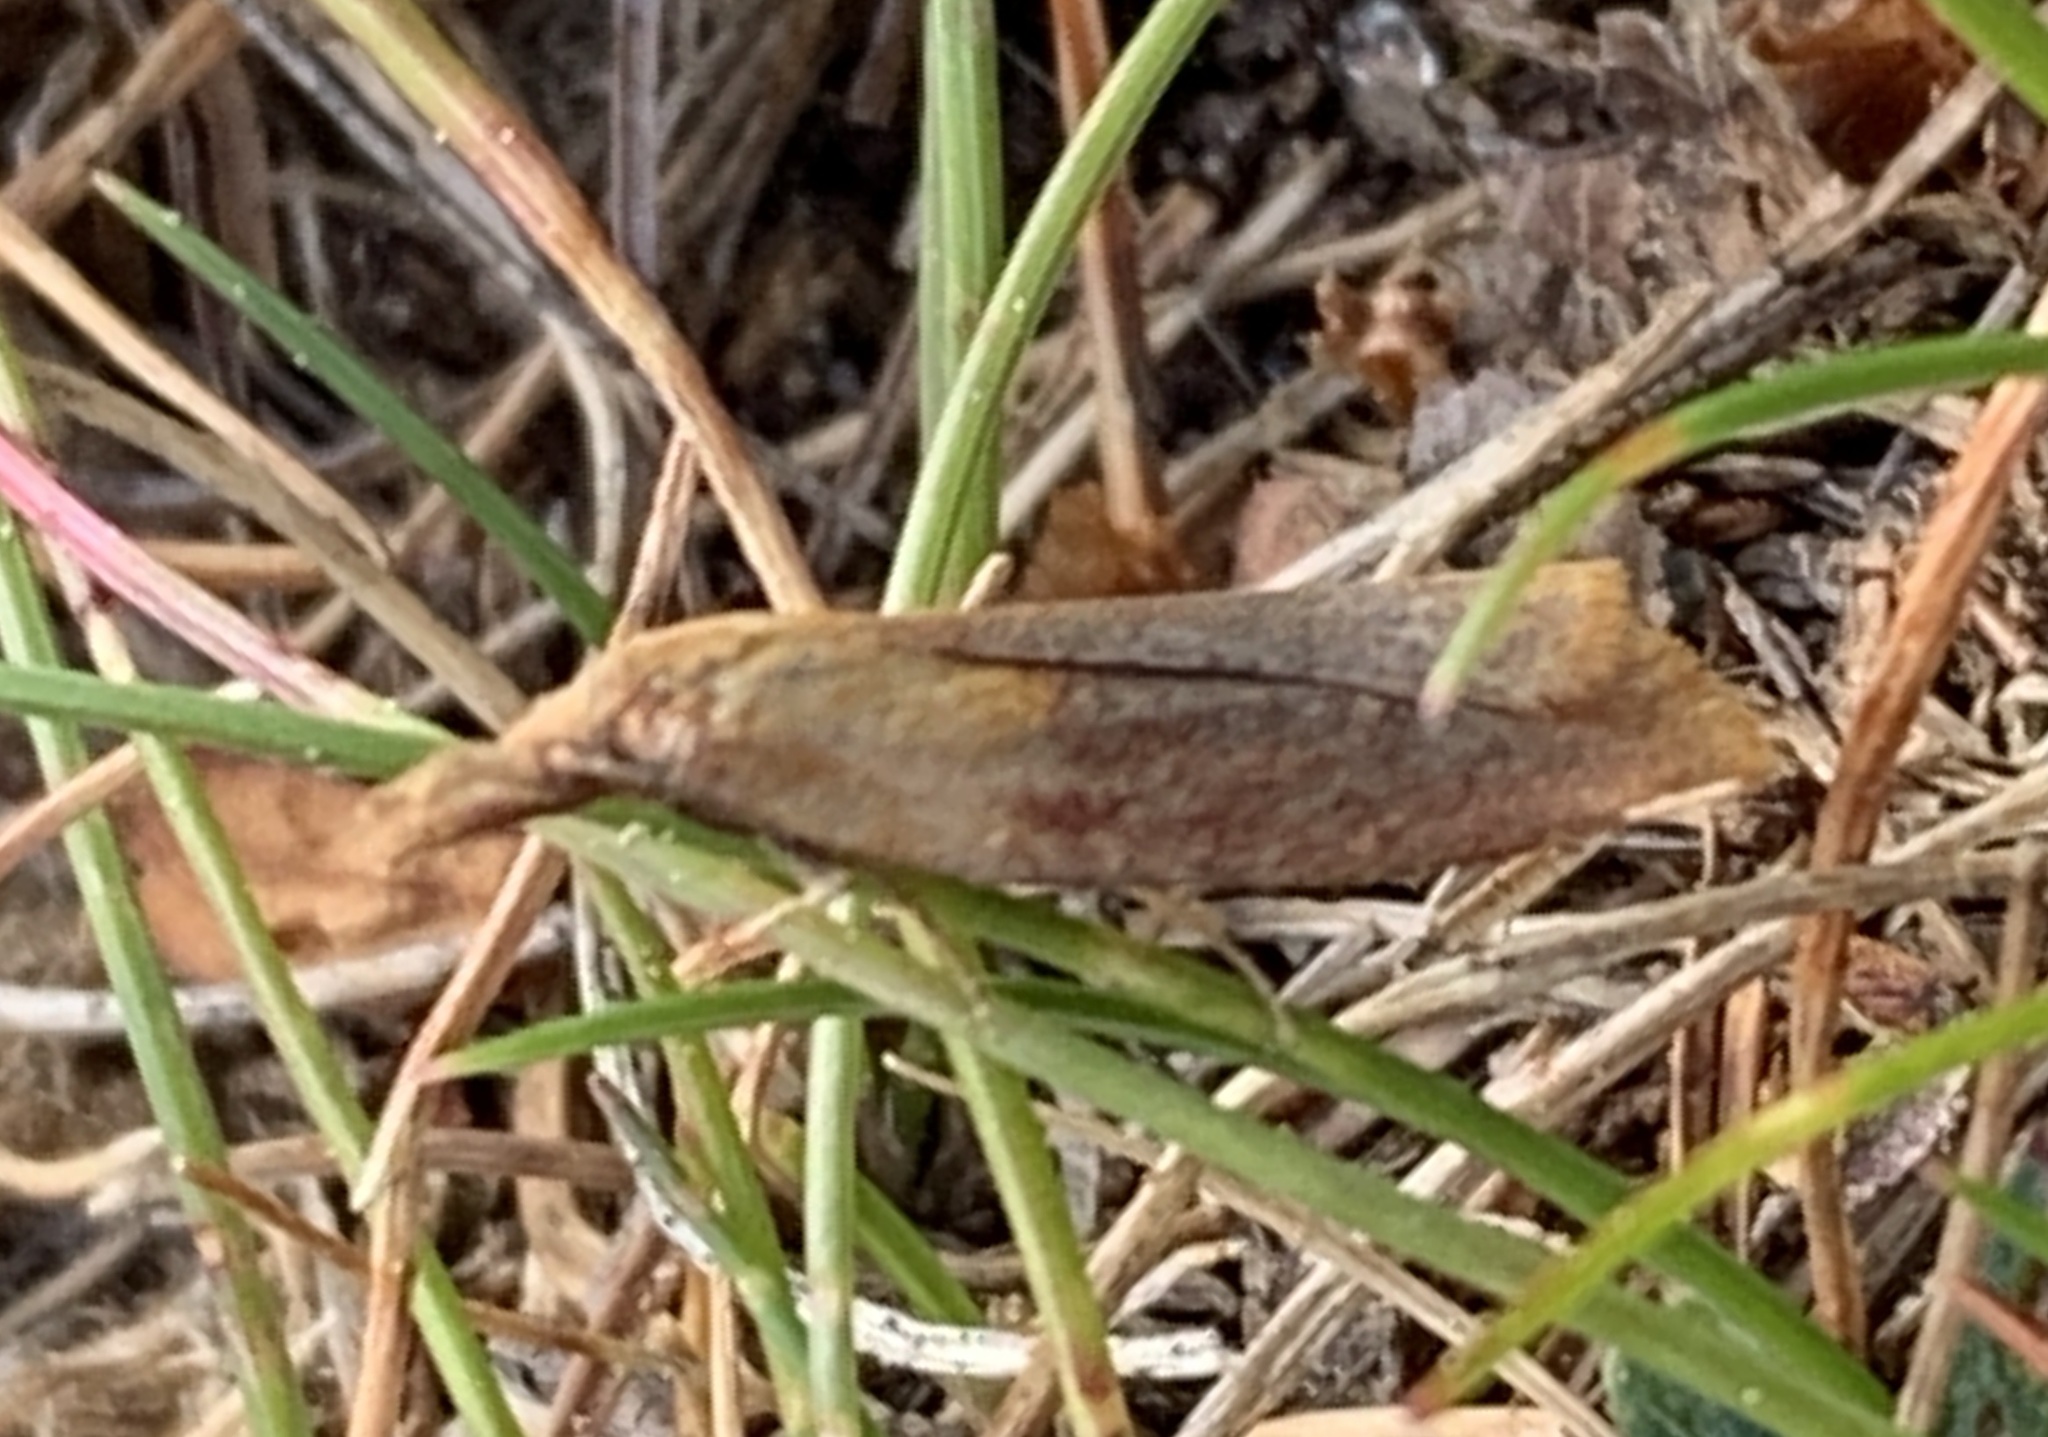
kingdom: Animalia
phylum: Arthropoda
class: Insecta
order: Lepidoptera
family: Tortricidae
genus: Sparganothis
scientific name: Sparganothis violaceana
